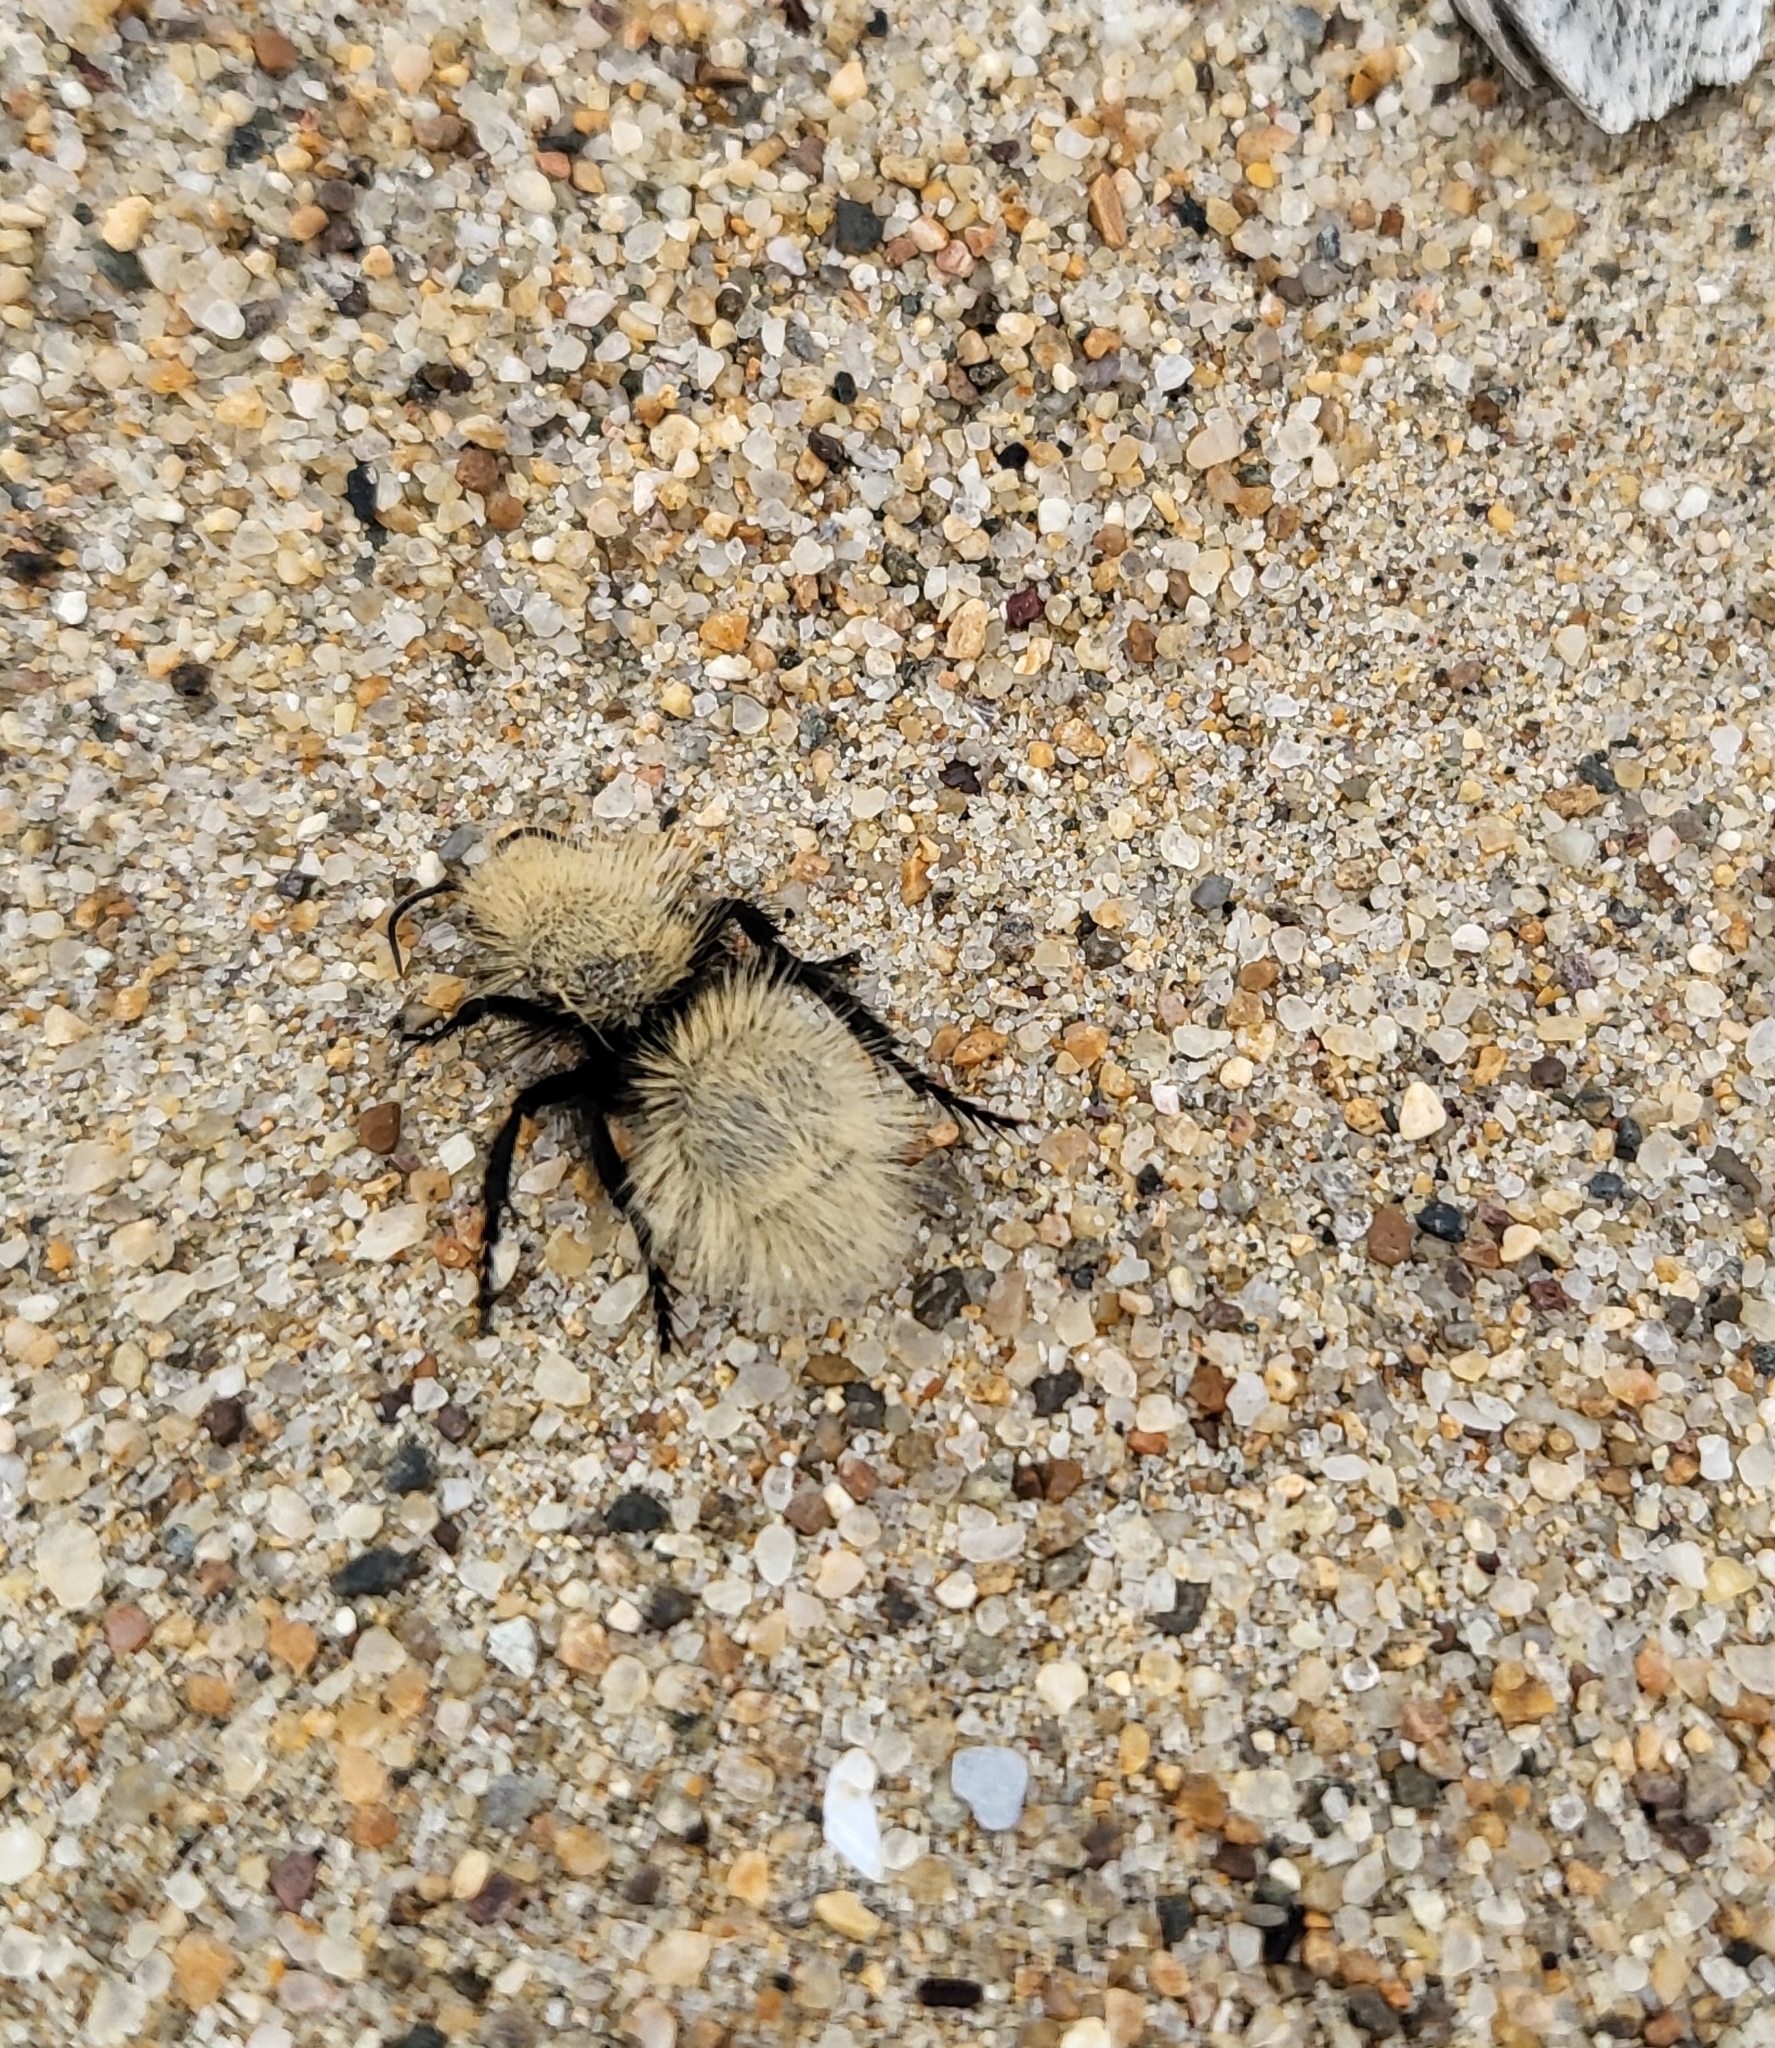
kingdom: Animalia
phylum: Arthropoda
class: Insecta
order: Hymenoptera
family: Mutillidae
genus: Dasymutilla
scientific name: Dasymutilla
